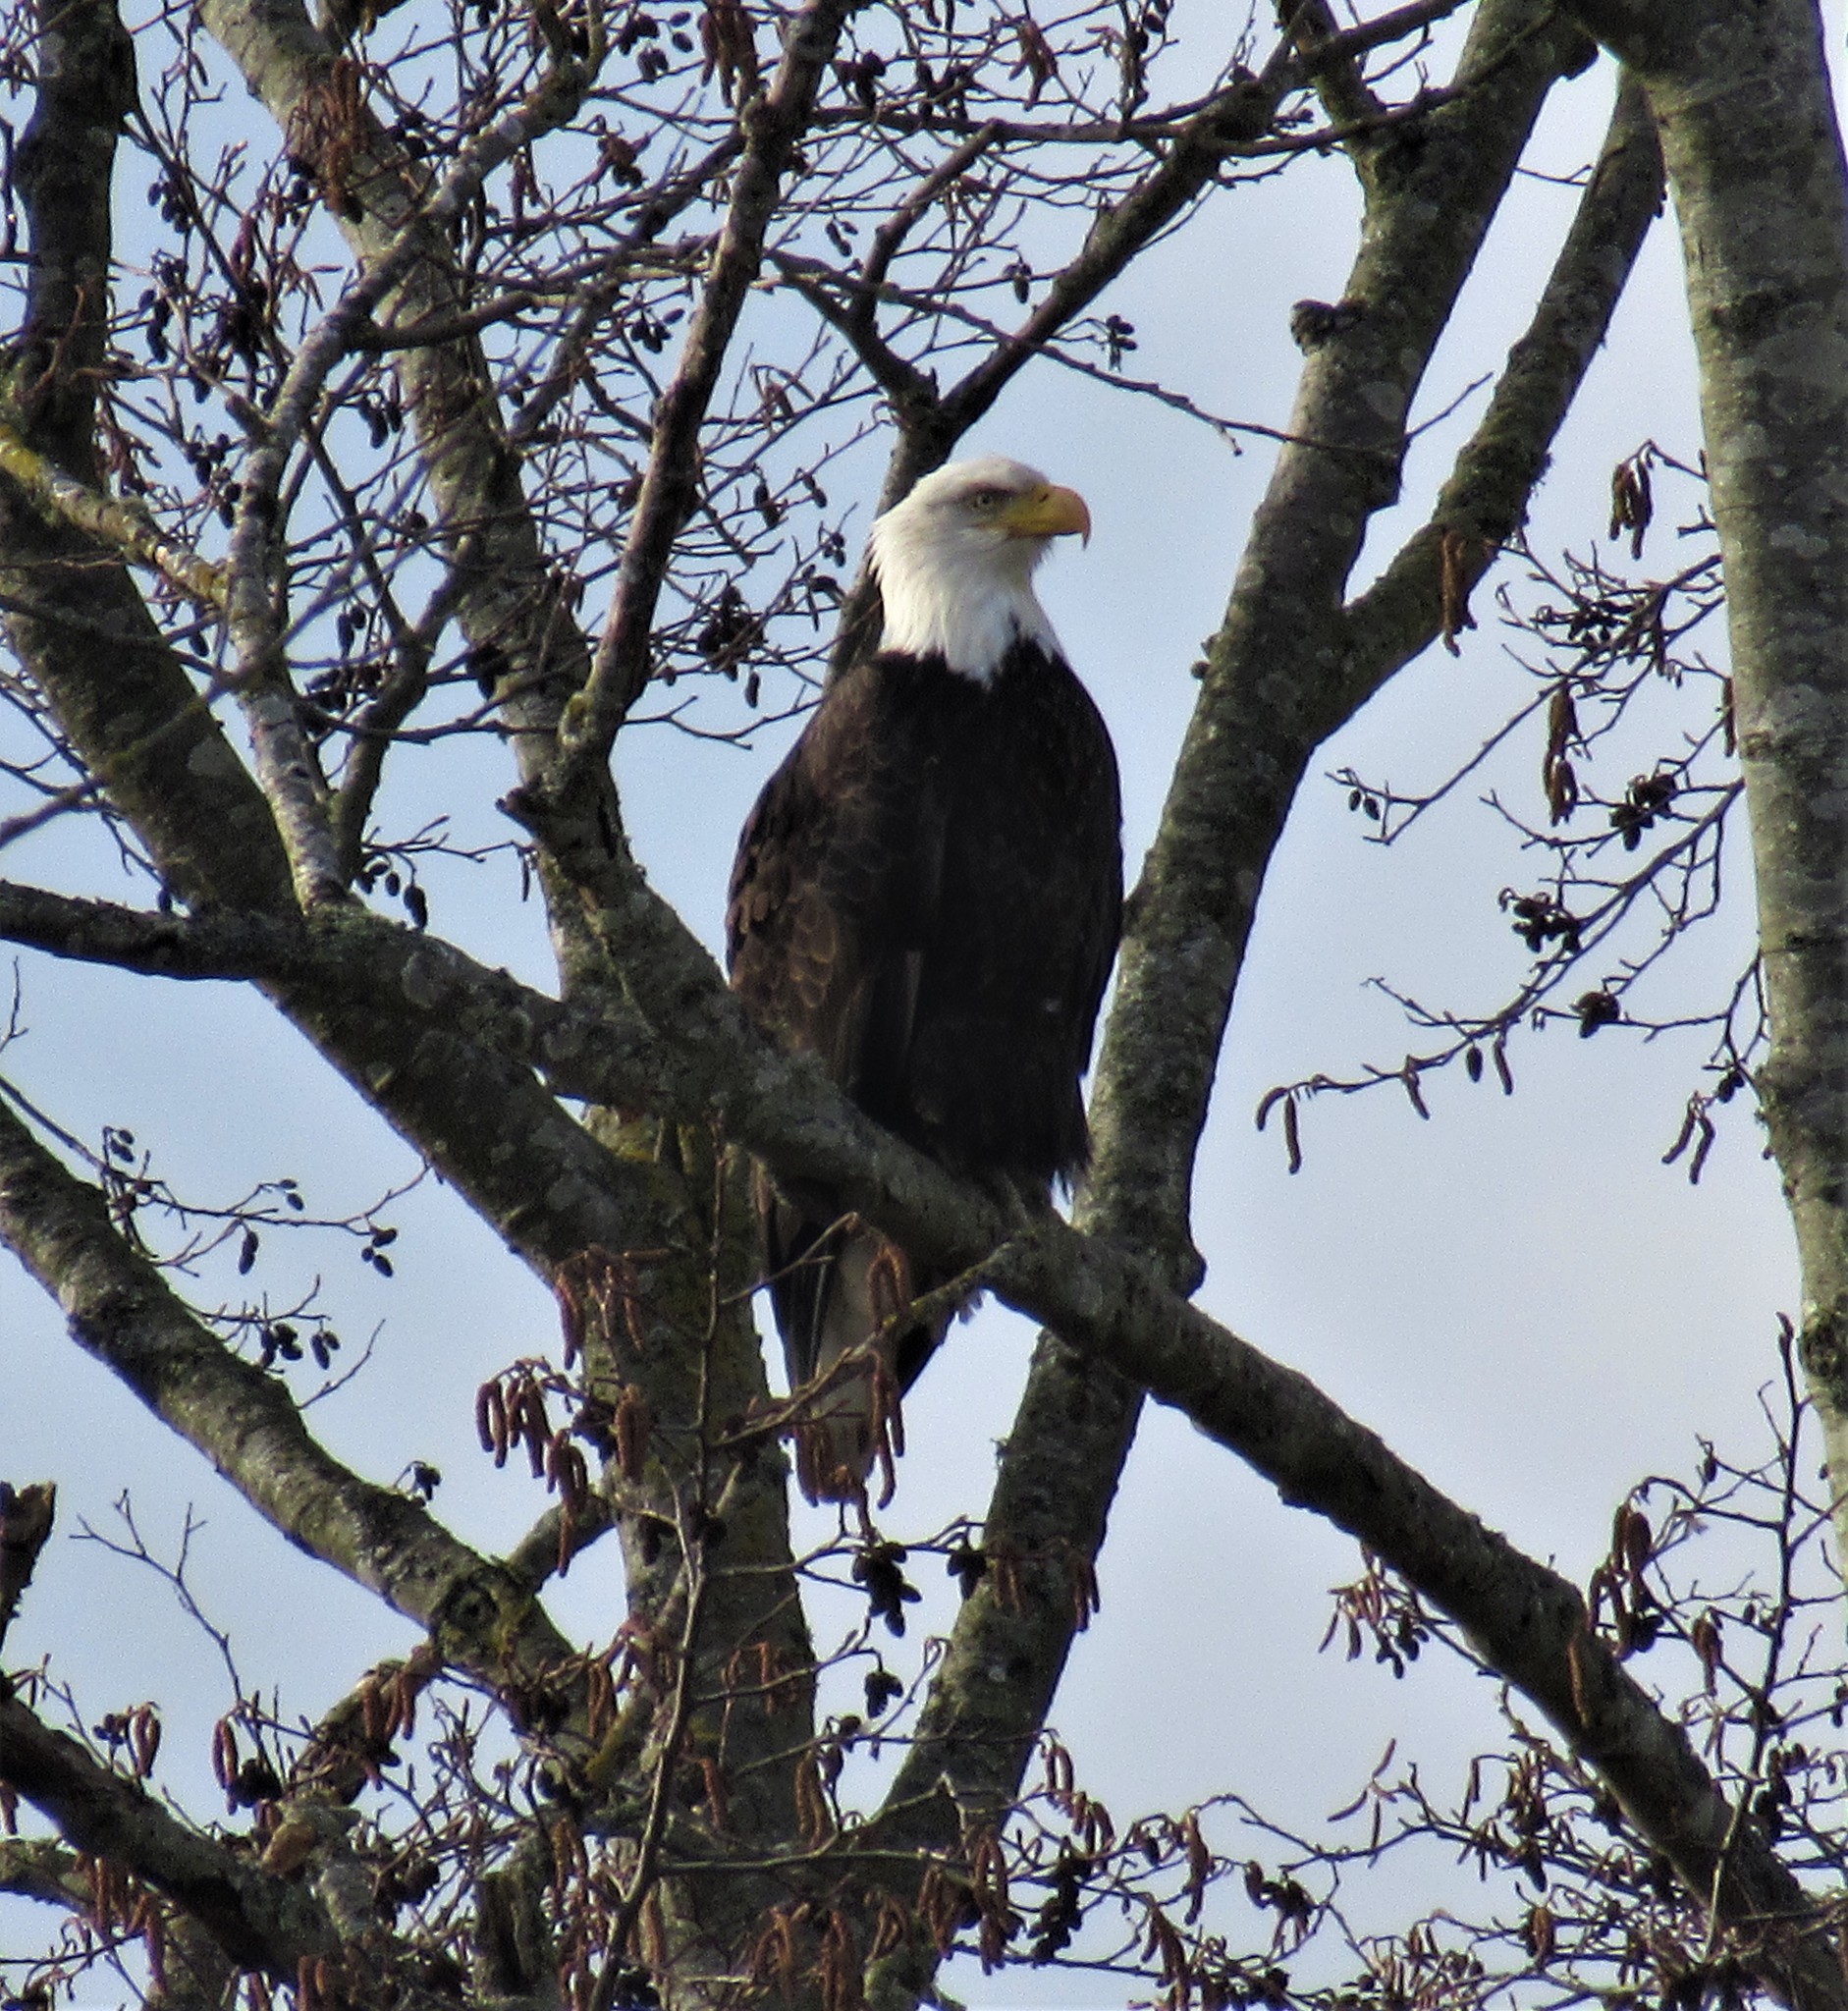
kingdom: Animalia
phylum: Chordata
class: Aves
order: Accipitriformes
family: Accipitridae
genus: Haliaeetus
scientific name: Haliaeetus leucocephalus
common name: Bald eagle
